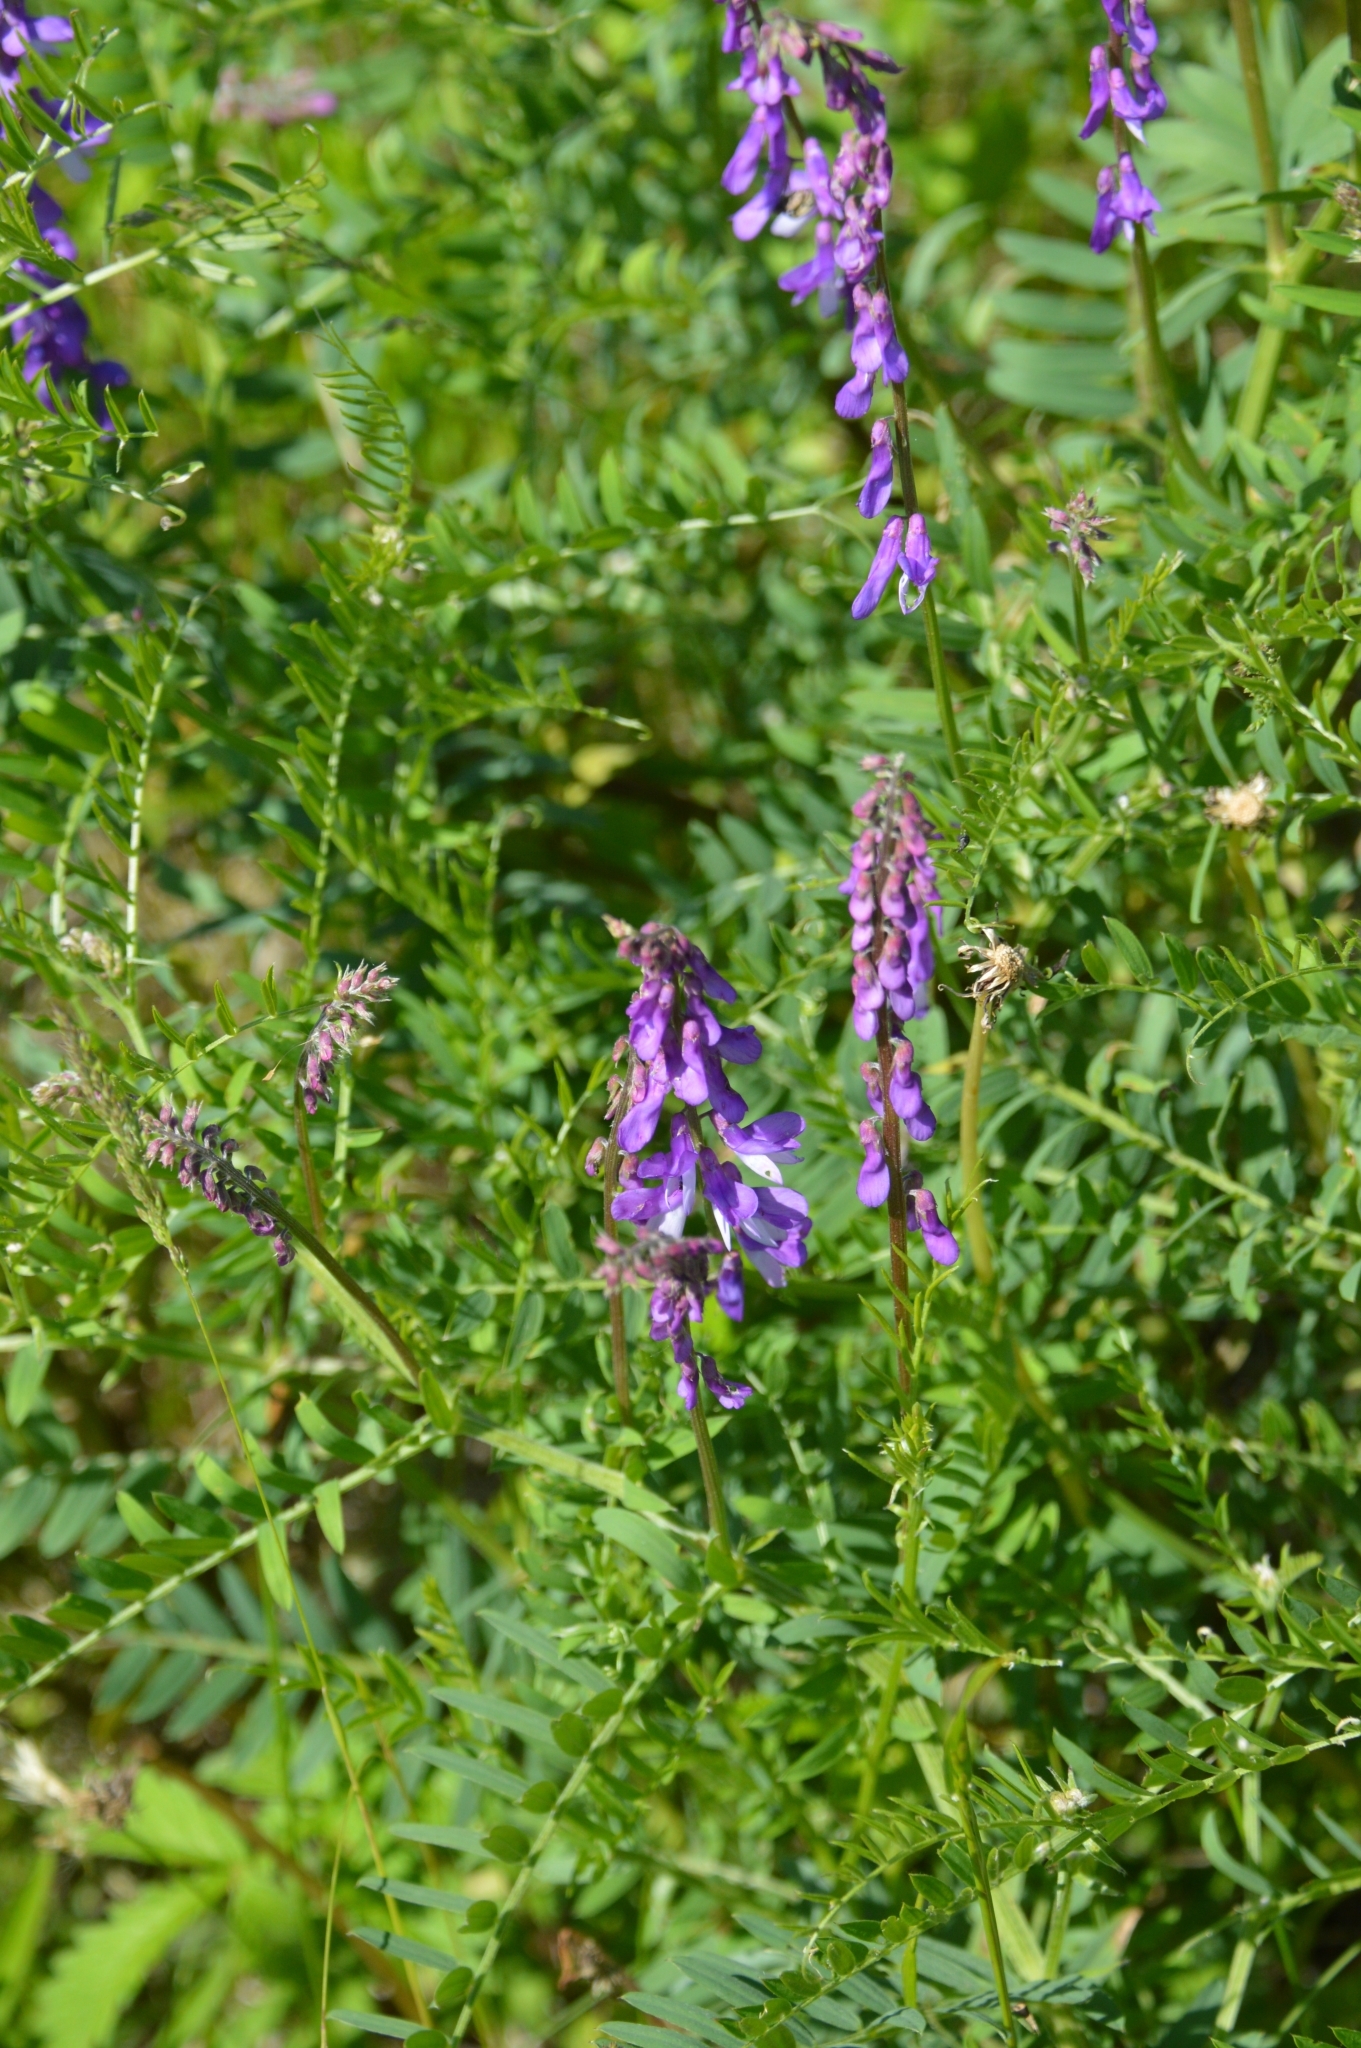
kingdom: Plantae
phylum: Tracheophyta
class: Magnoliopsida
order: Fabales
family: Fabaceae
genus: Vicia
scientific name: Vicia tenuifolia
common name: Fine-leaved vetch
